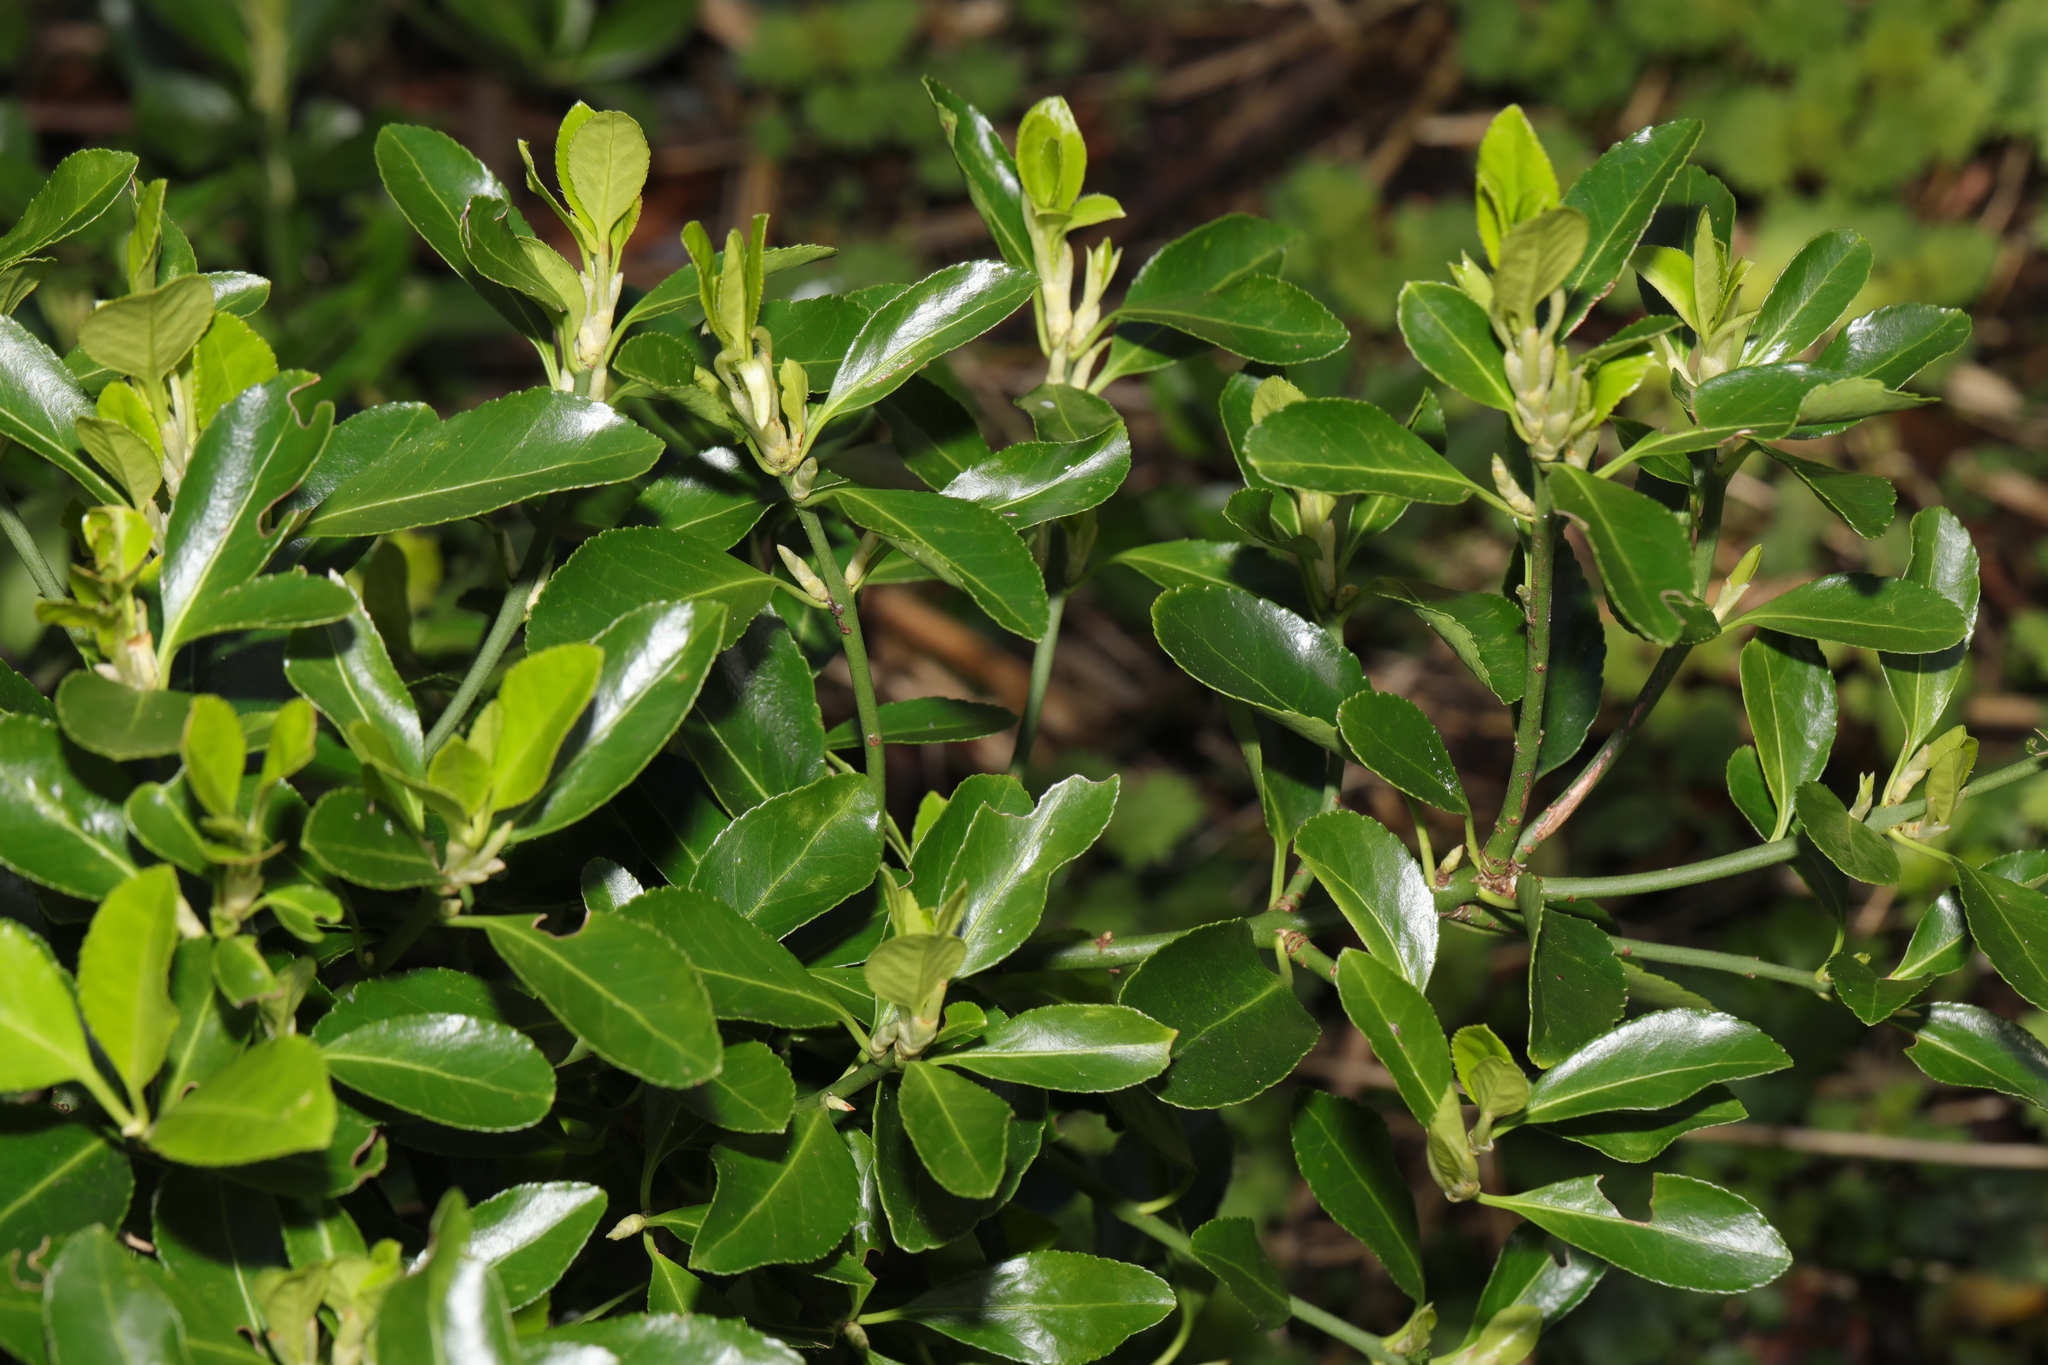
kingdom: Plantae
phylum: Tracheophyta
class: Magnoliopsida
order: Celastrales
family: Celastraceae
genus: Euonymus
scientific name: Euonymus japonicus
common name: Japanese spindletree
